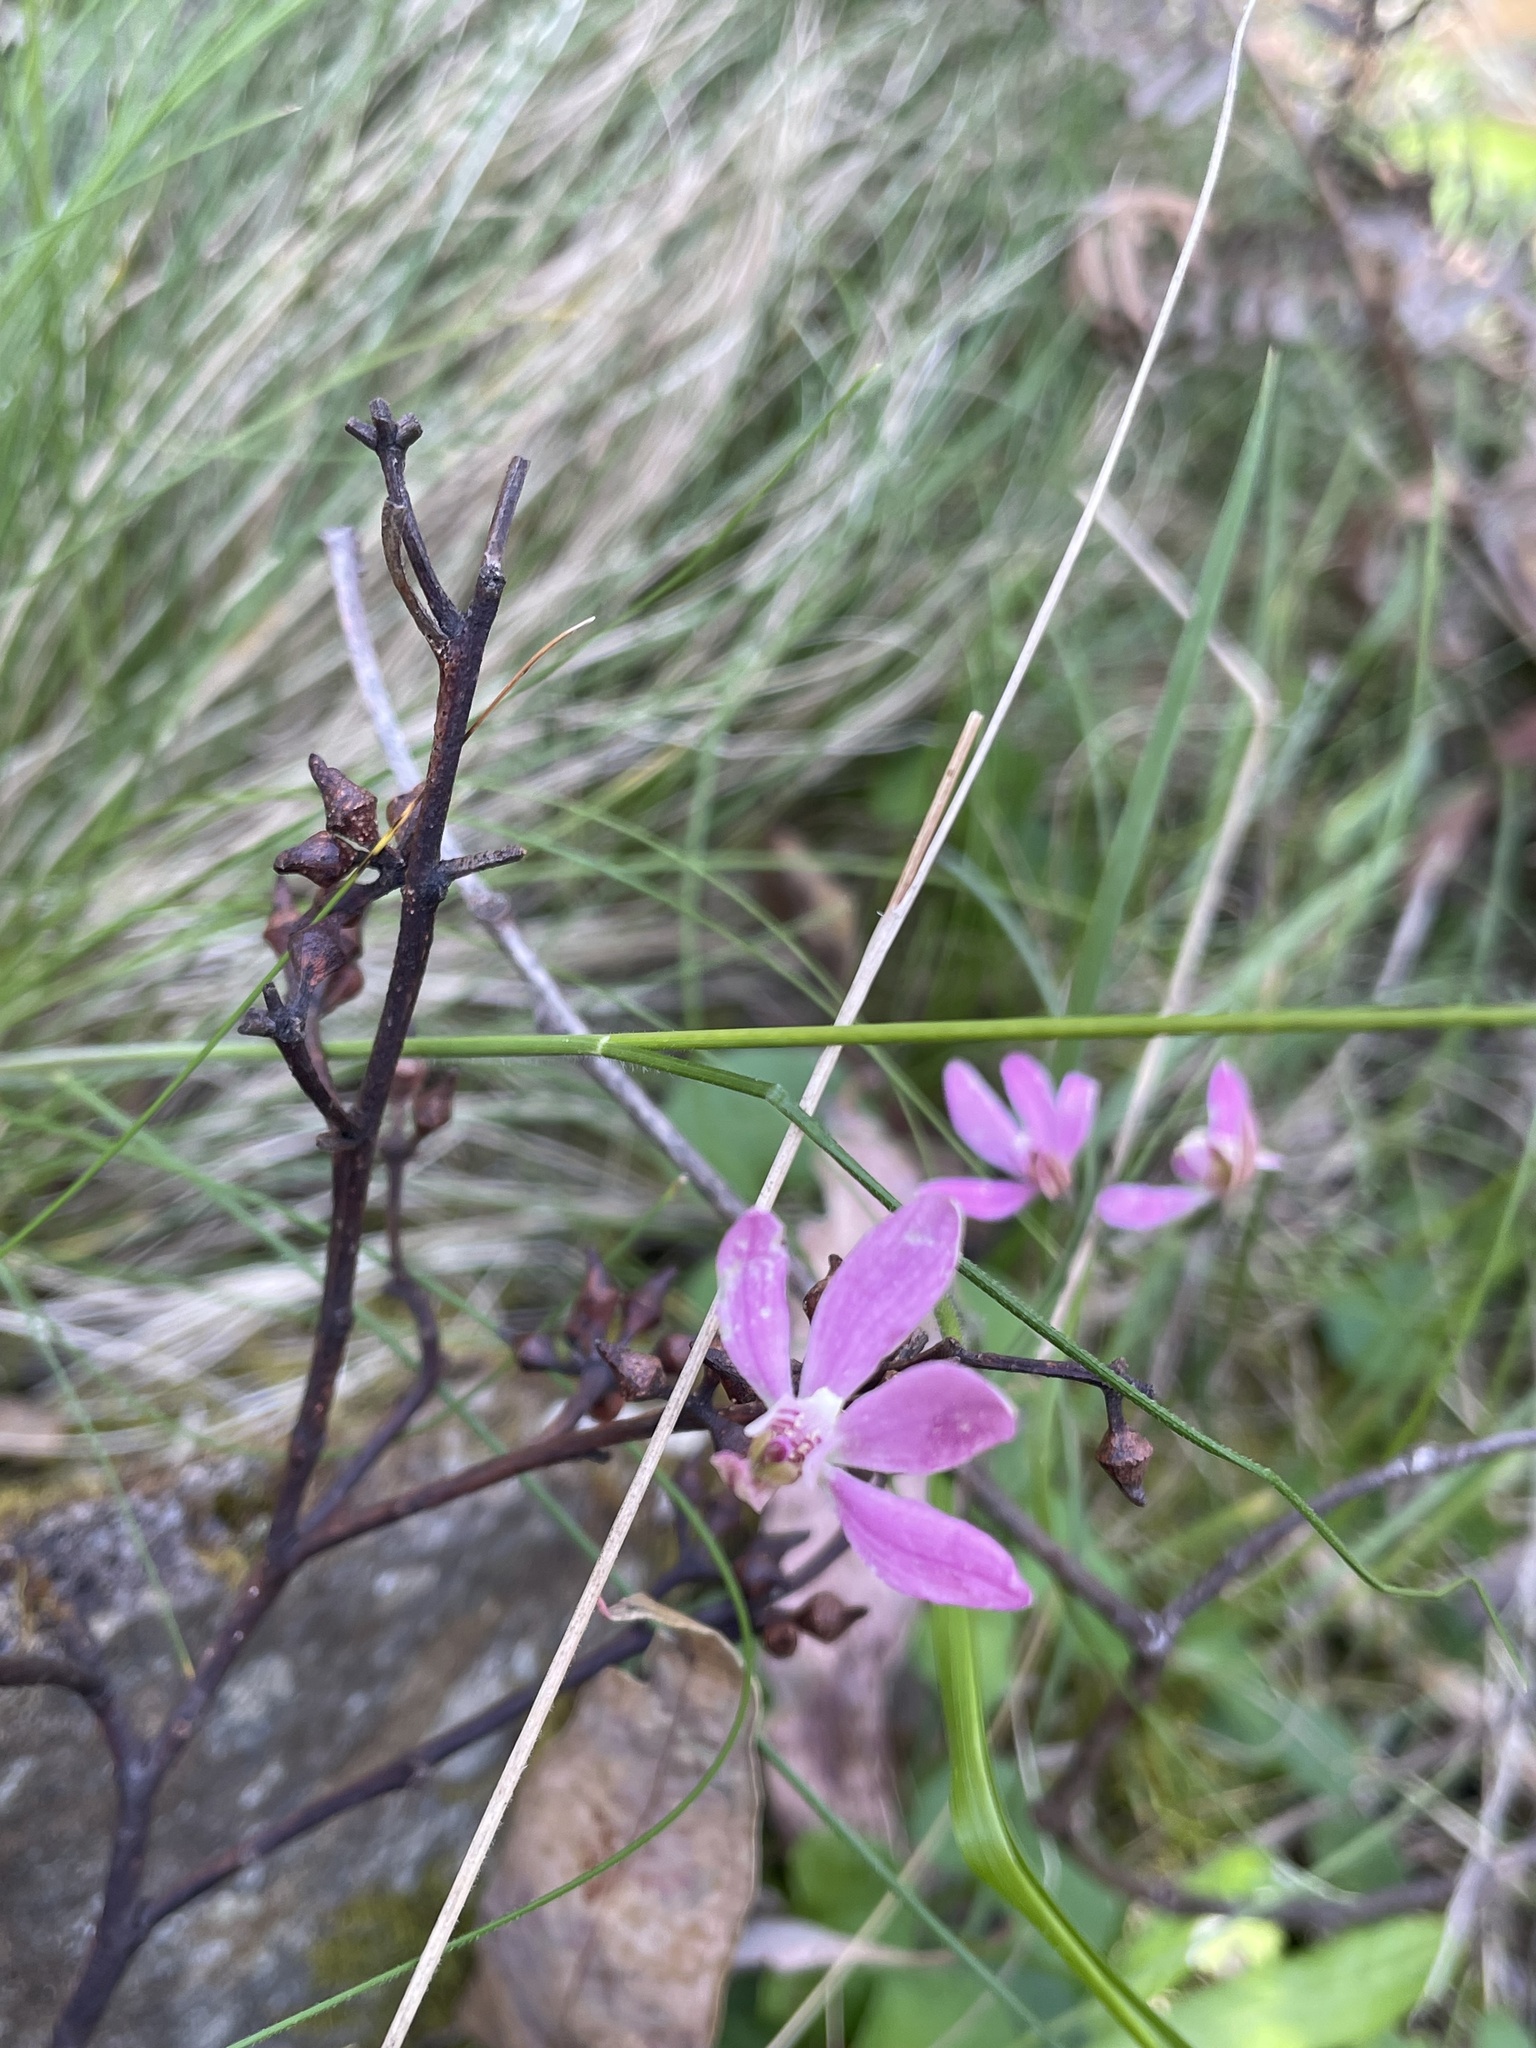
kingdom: Plantae
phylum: Tracheophyta
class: Liliopsida
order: Asparagales
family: Orchidaceae
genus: Caladenia
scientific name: Caladenia carnea
